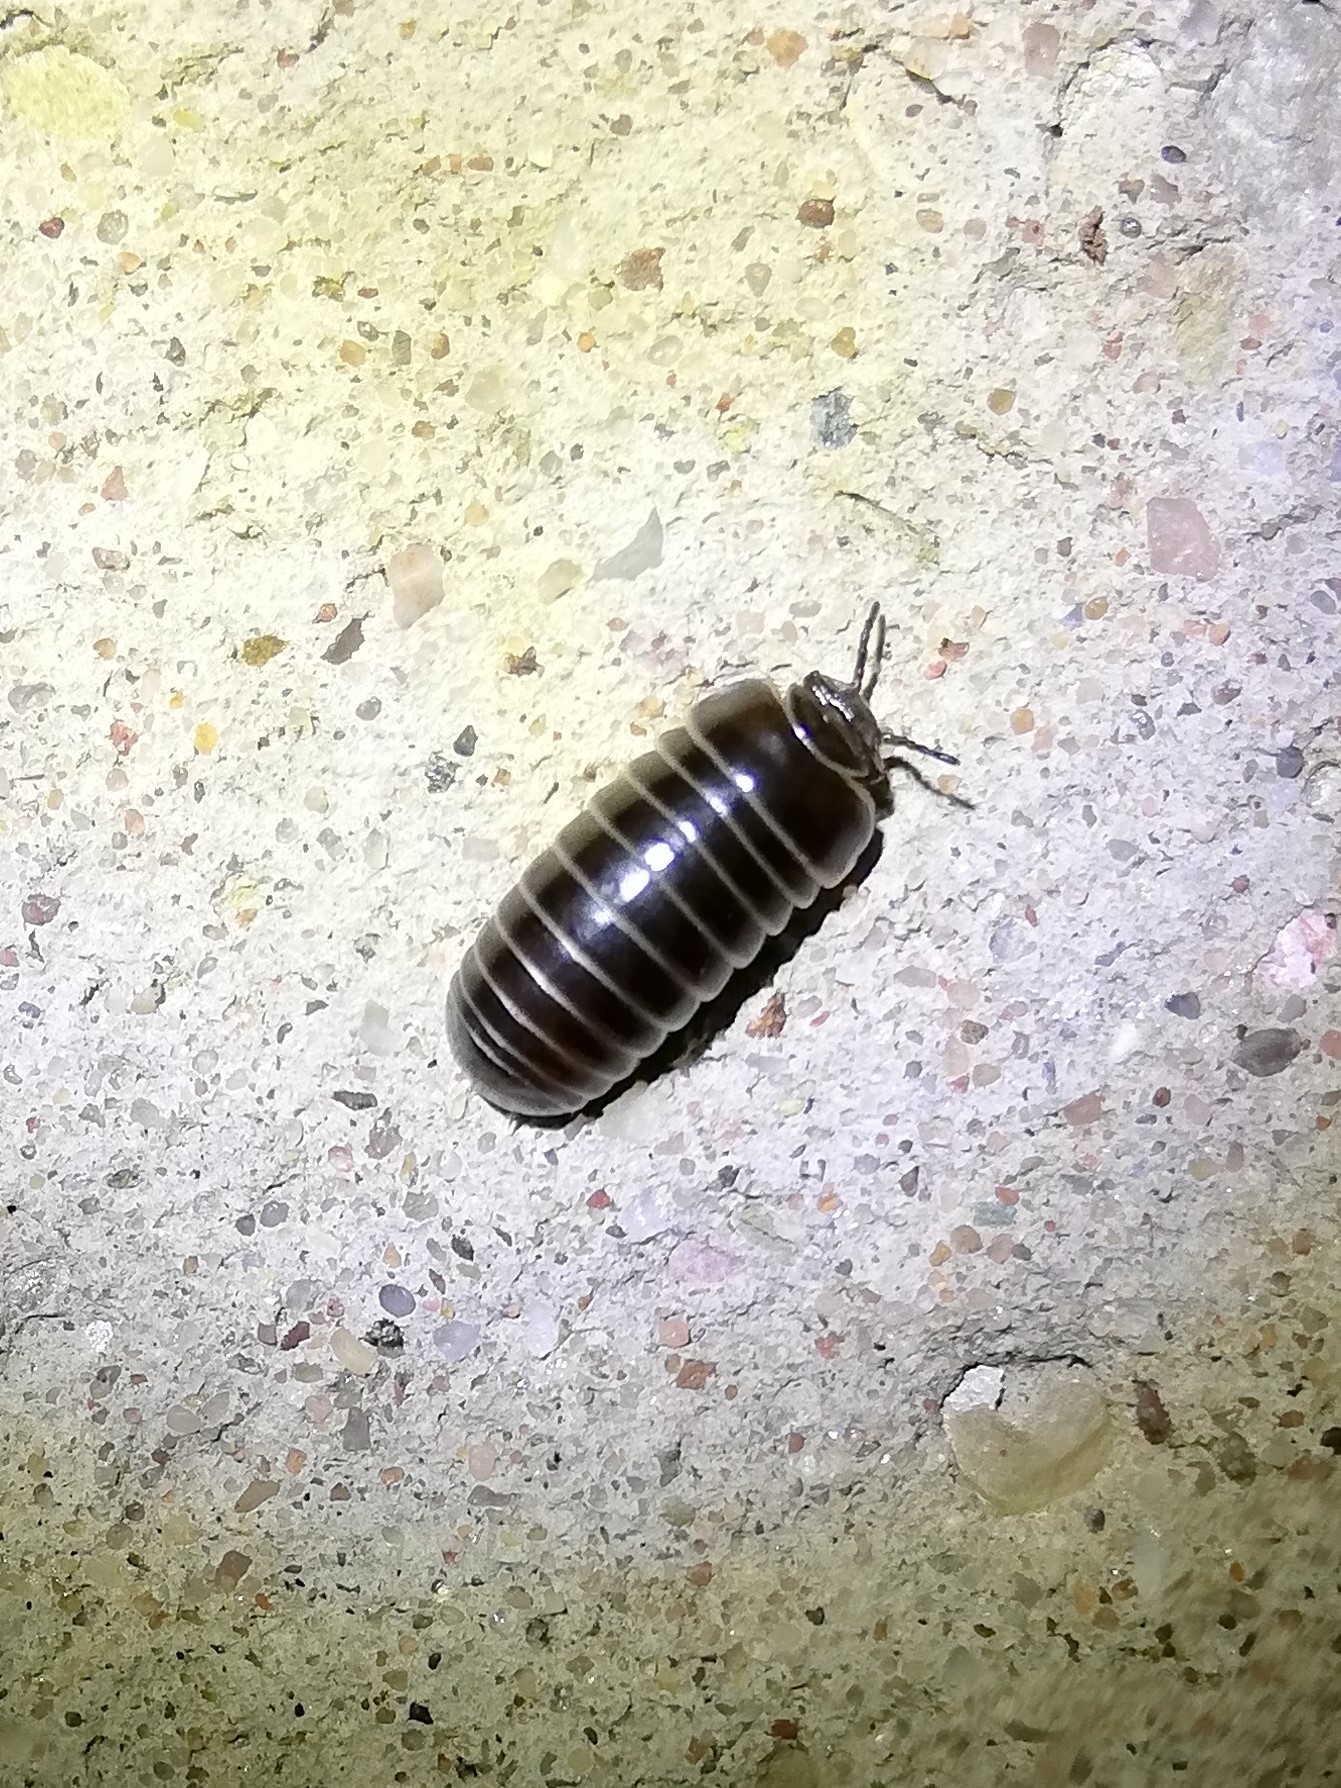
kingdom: Animalia
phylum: Arthropoda
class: Diplopoda
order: Glomerida
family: Glomeridae
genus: Glomeris
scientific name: Glomeris marginata
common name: Bordered pill millipede
